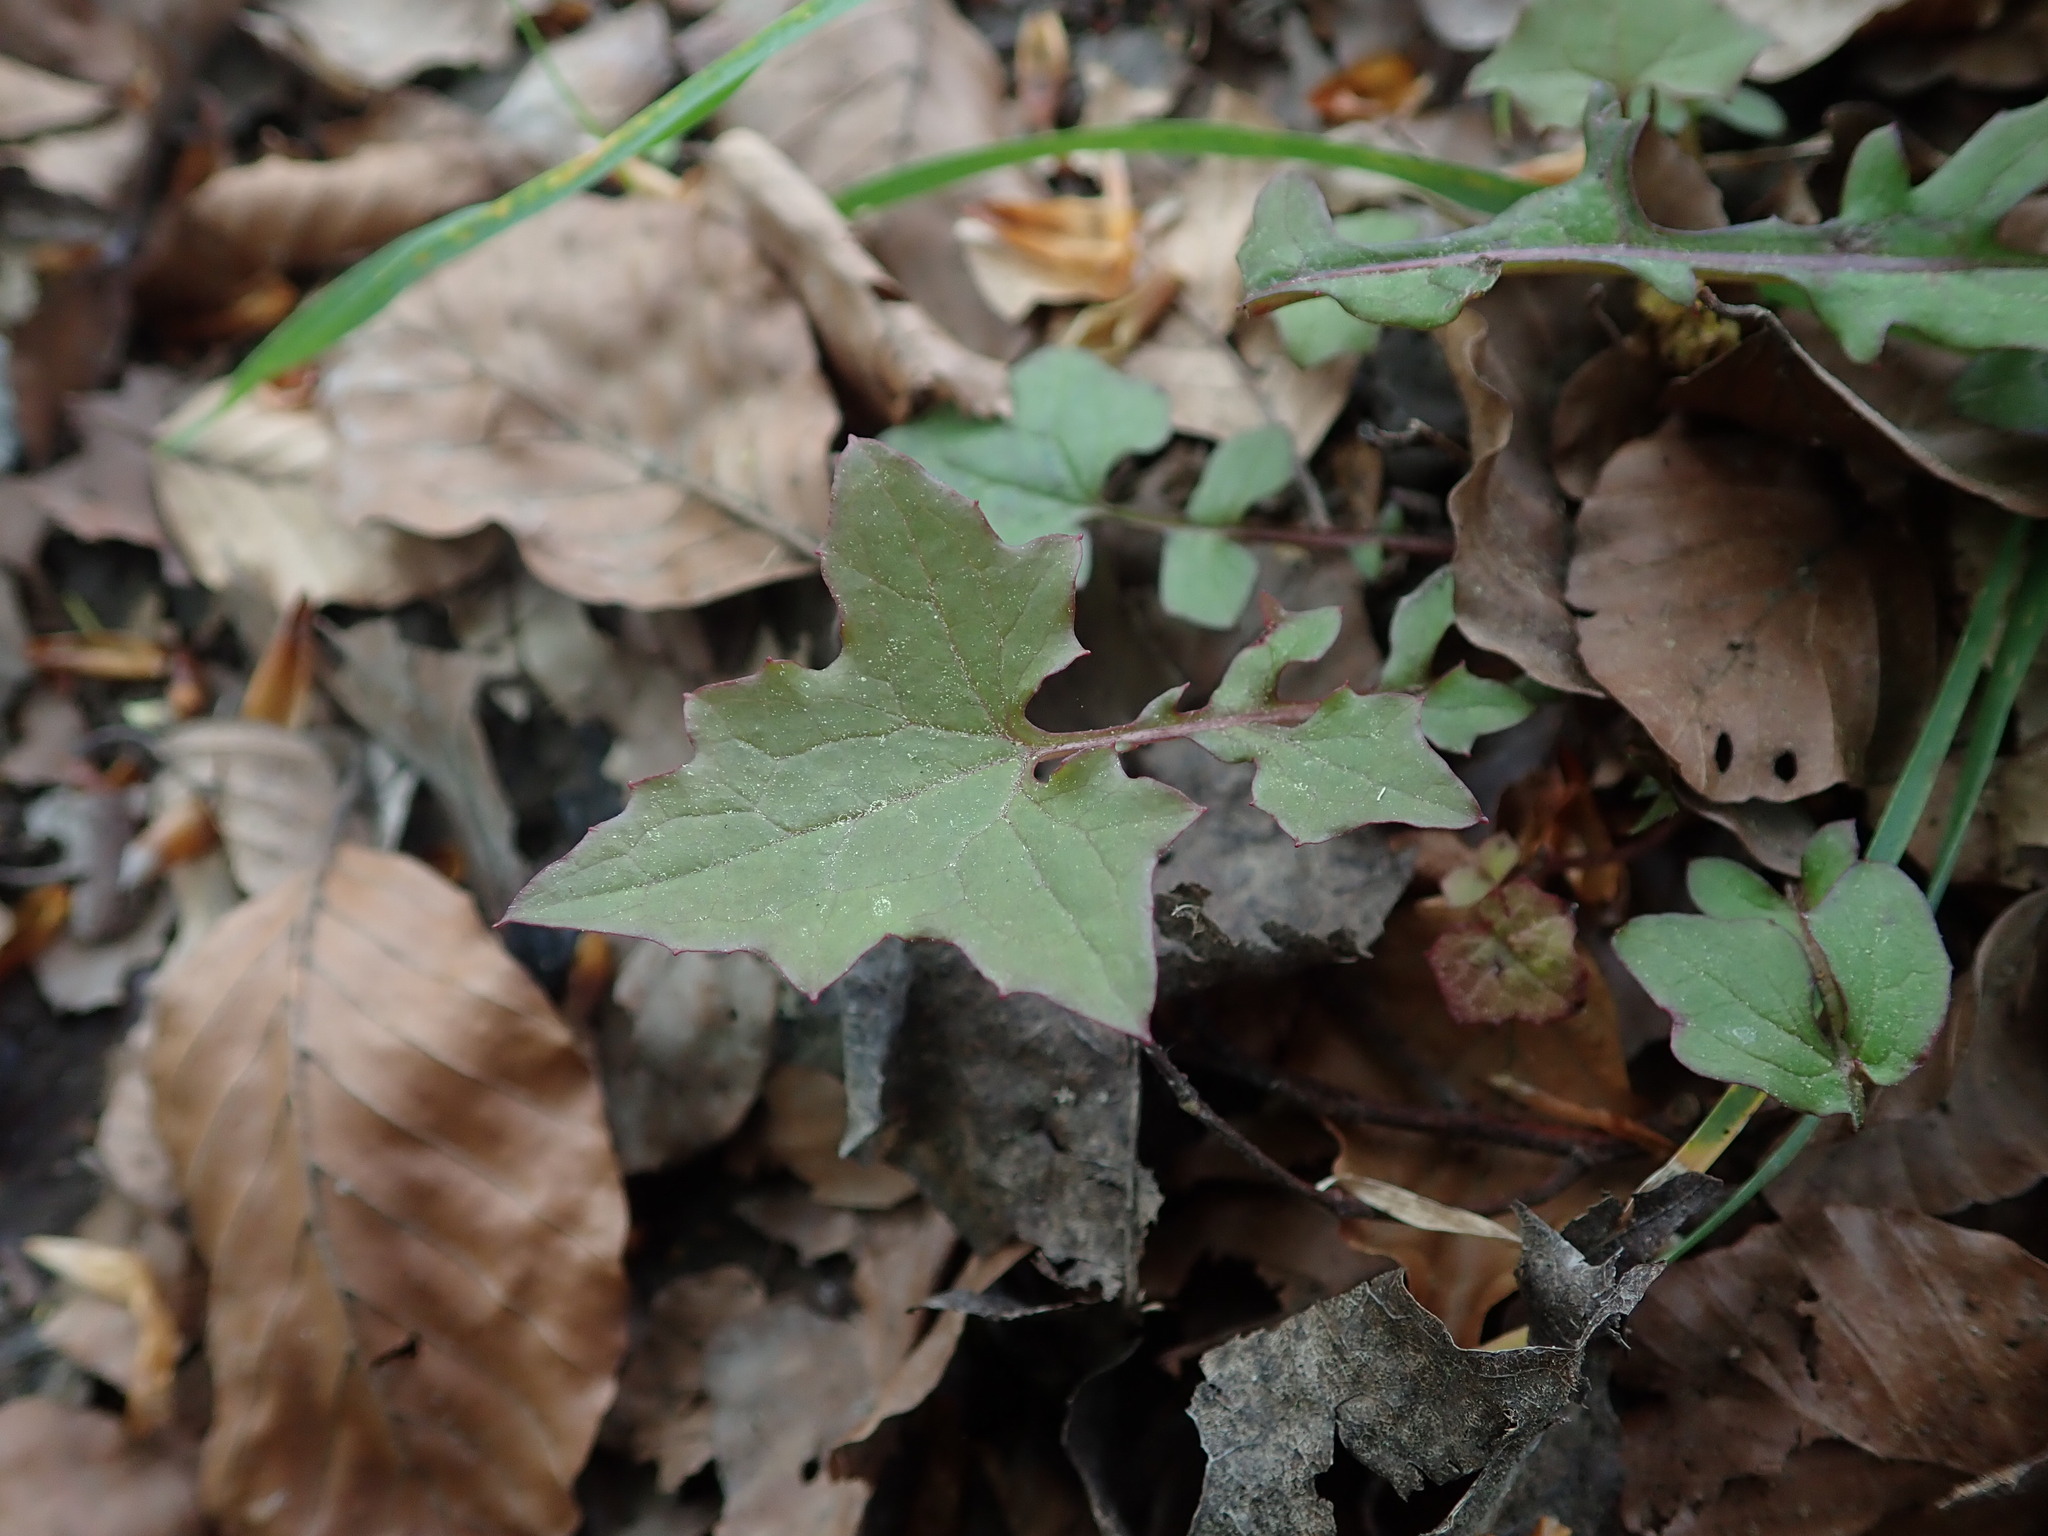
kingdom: Plantae
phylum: Tracheophyta
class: Magnoliopsida
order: Asterales
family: Asteraceae
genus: Mycelis
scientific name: Mycelis muralis
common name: Wall lettuce
